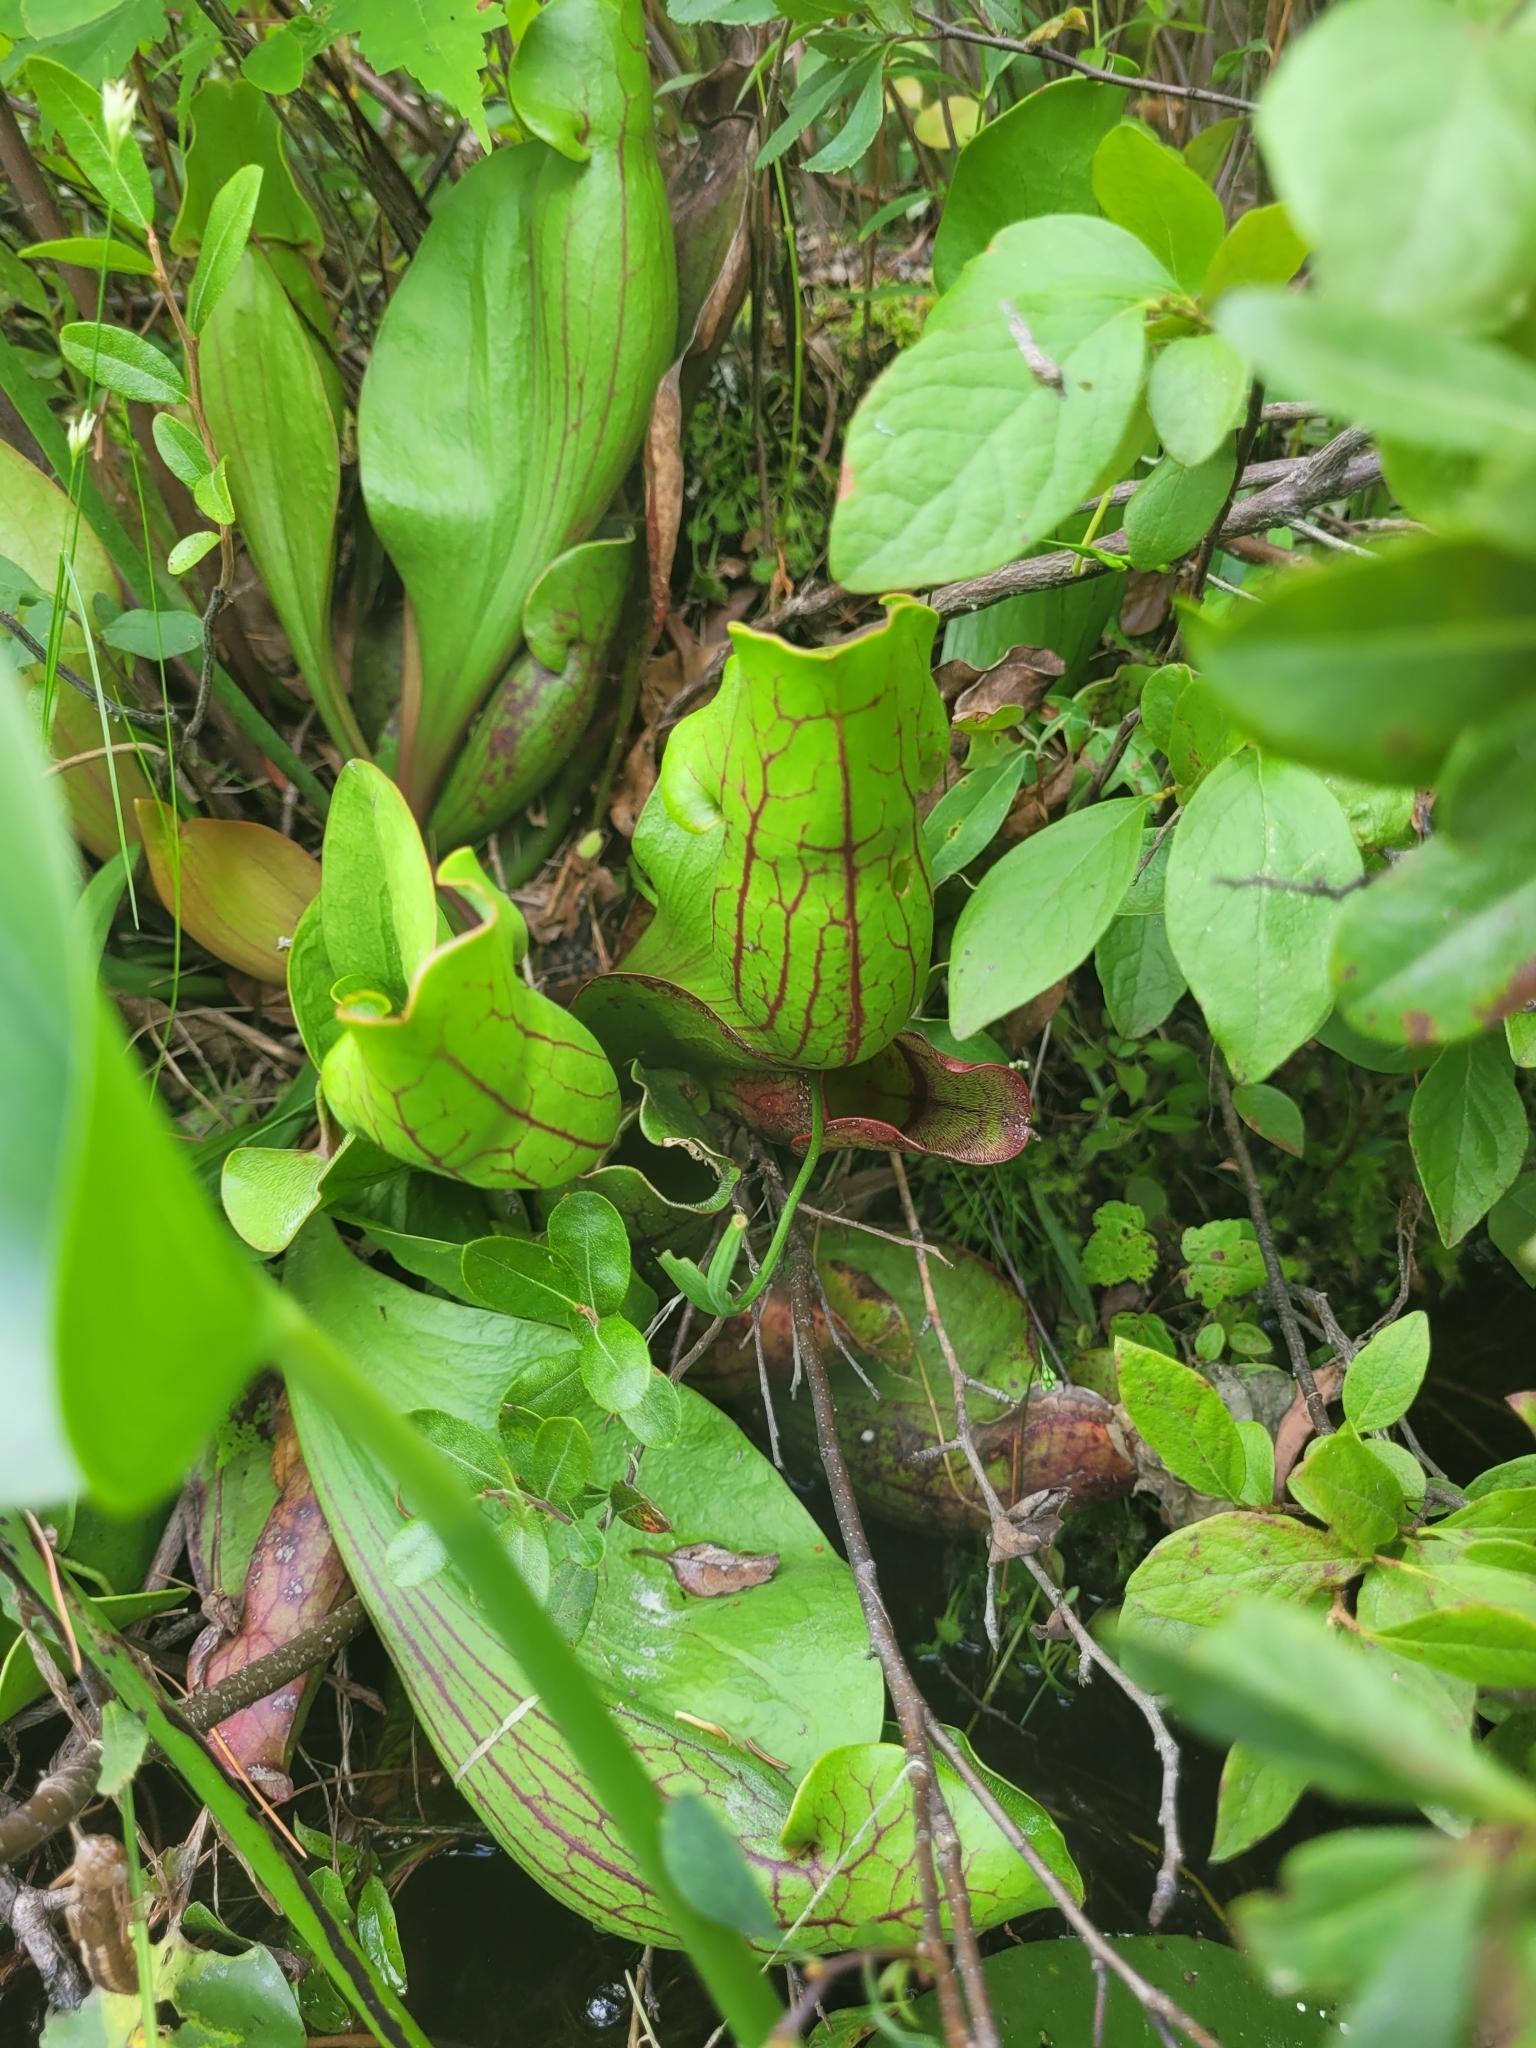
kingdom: Plantae
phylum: Tracheophyta
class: Magnoliopsida
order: Ericales
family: Sarraceniaceae
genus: Sarracenia
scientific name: Sarracenia purpurea
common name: Pitcherplant
